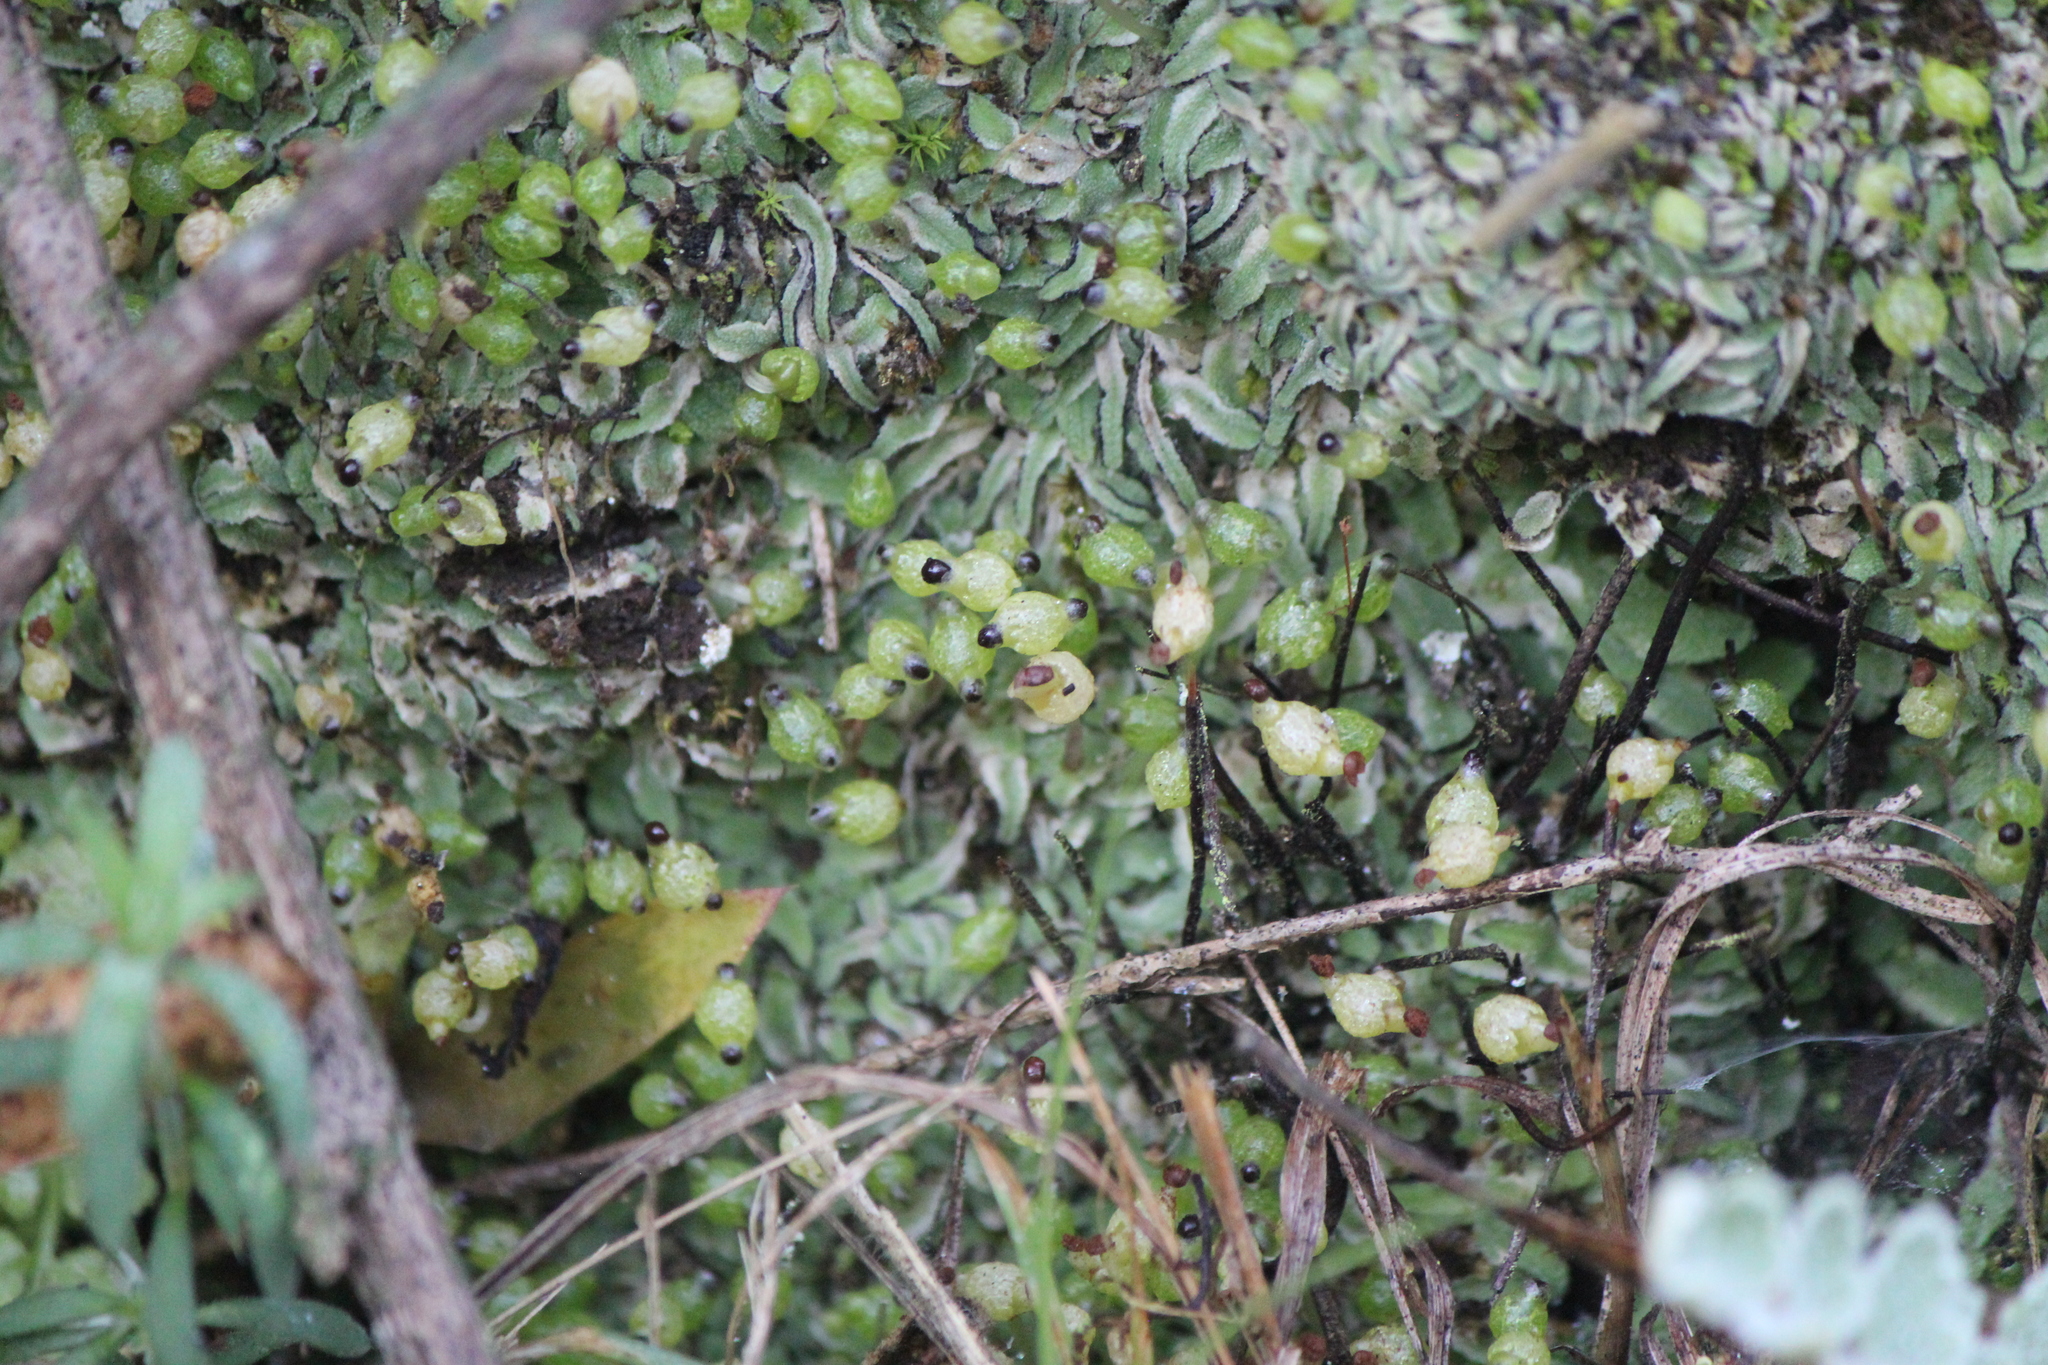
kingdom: Plantae
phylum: Marchantiophyta
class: Marchantiopsida
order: Marchantiales
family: Corsiniaceae
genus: Exormotheca
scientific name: Exormotheca pustulosa
